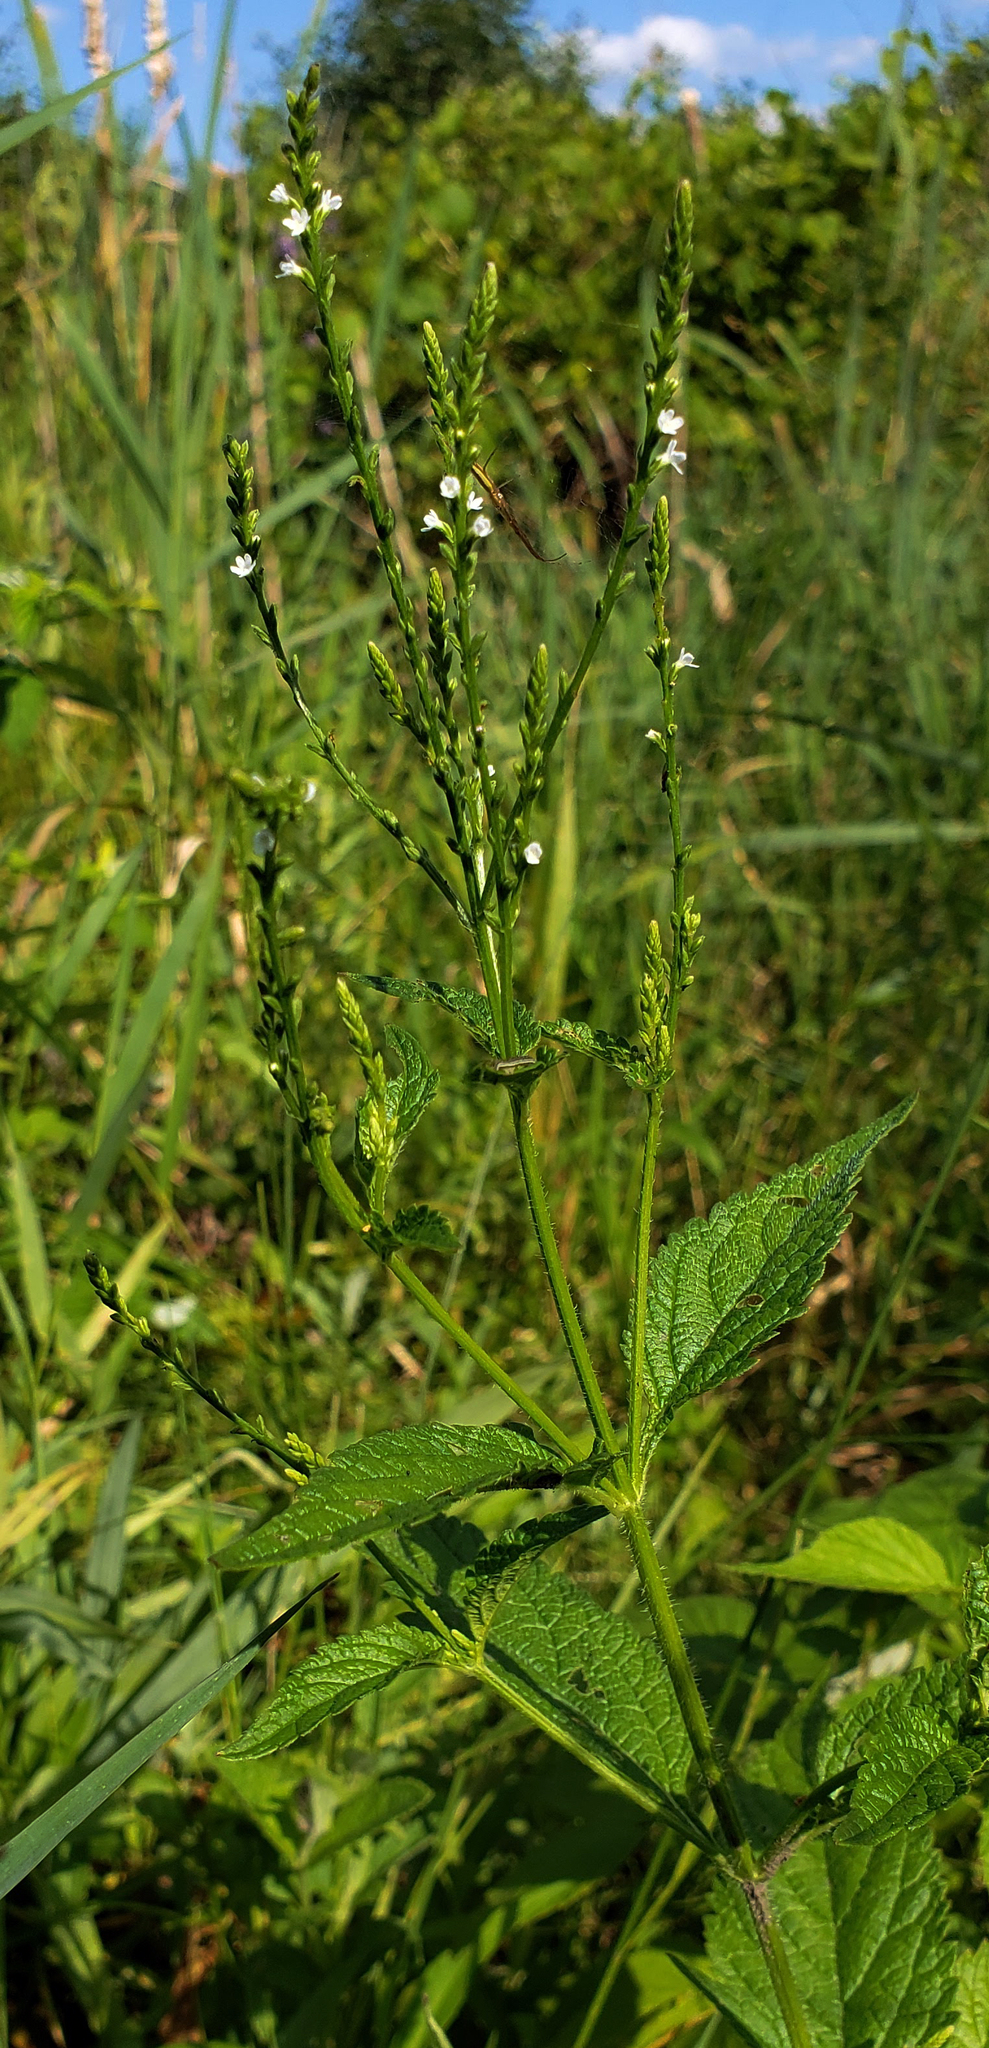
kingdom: Plantae
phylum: Tracheophyta
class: Magnoliopsida
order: Lamiales
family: Verbenaceae
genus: Verbena
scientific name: Verbena urticifolia
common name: Nettle-leaved vervain
